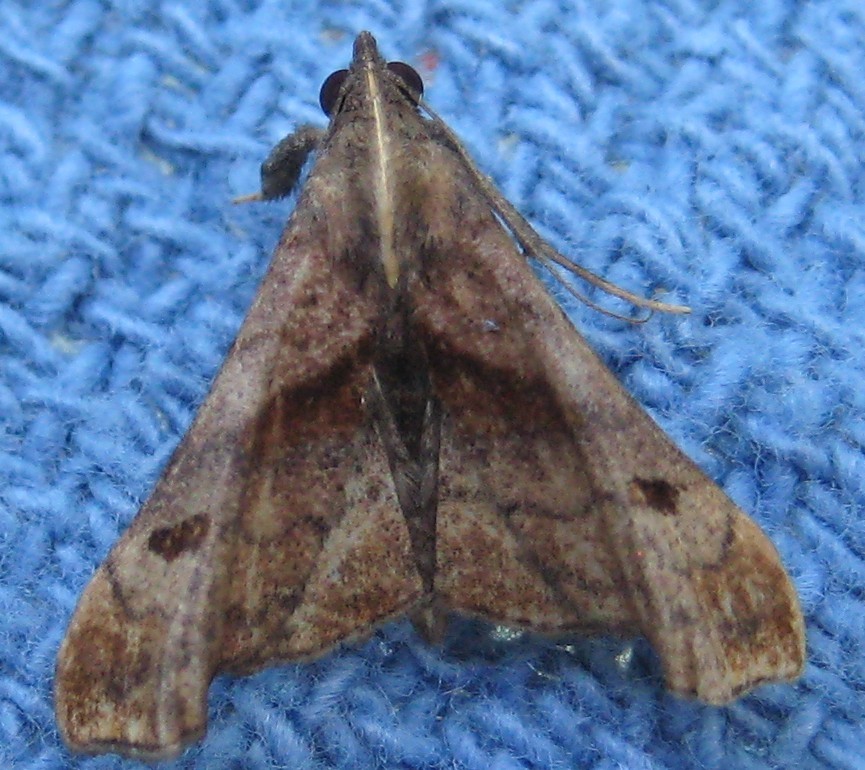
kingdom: Animalia
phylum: Arthropoda
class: Insecta
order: Lepidoptera
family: Erebidae
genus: Palthis
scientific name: Palthis angulalis
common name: Dark-spotted palthis moth
